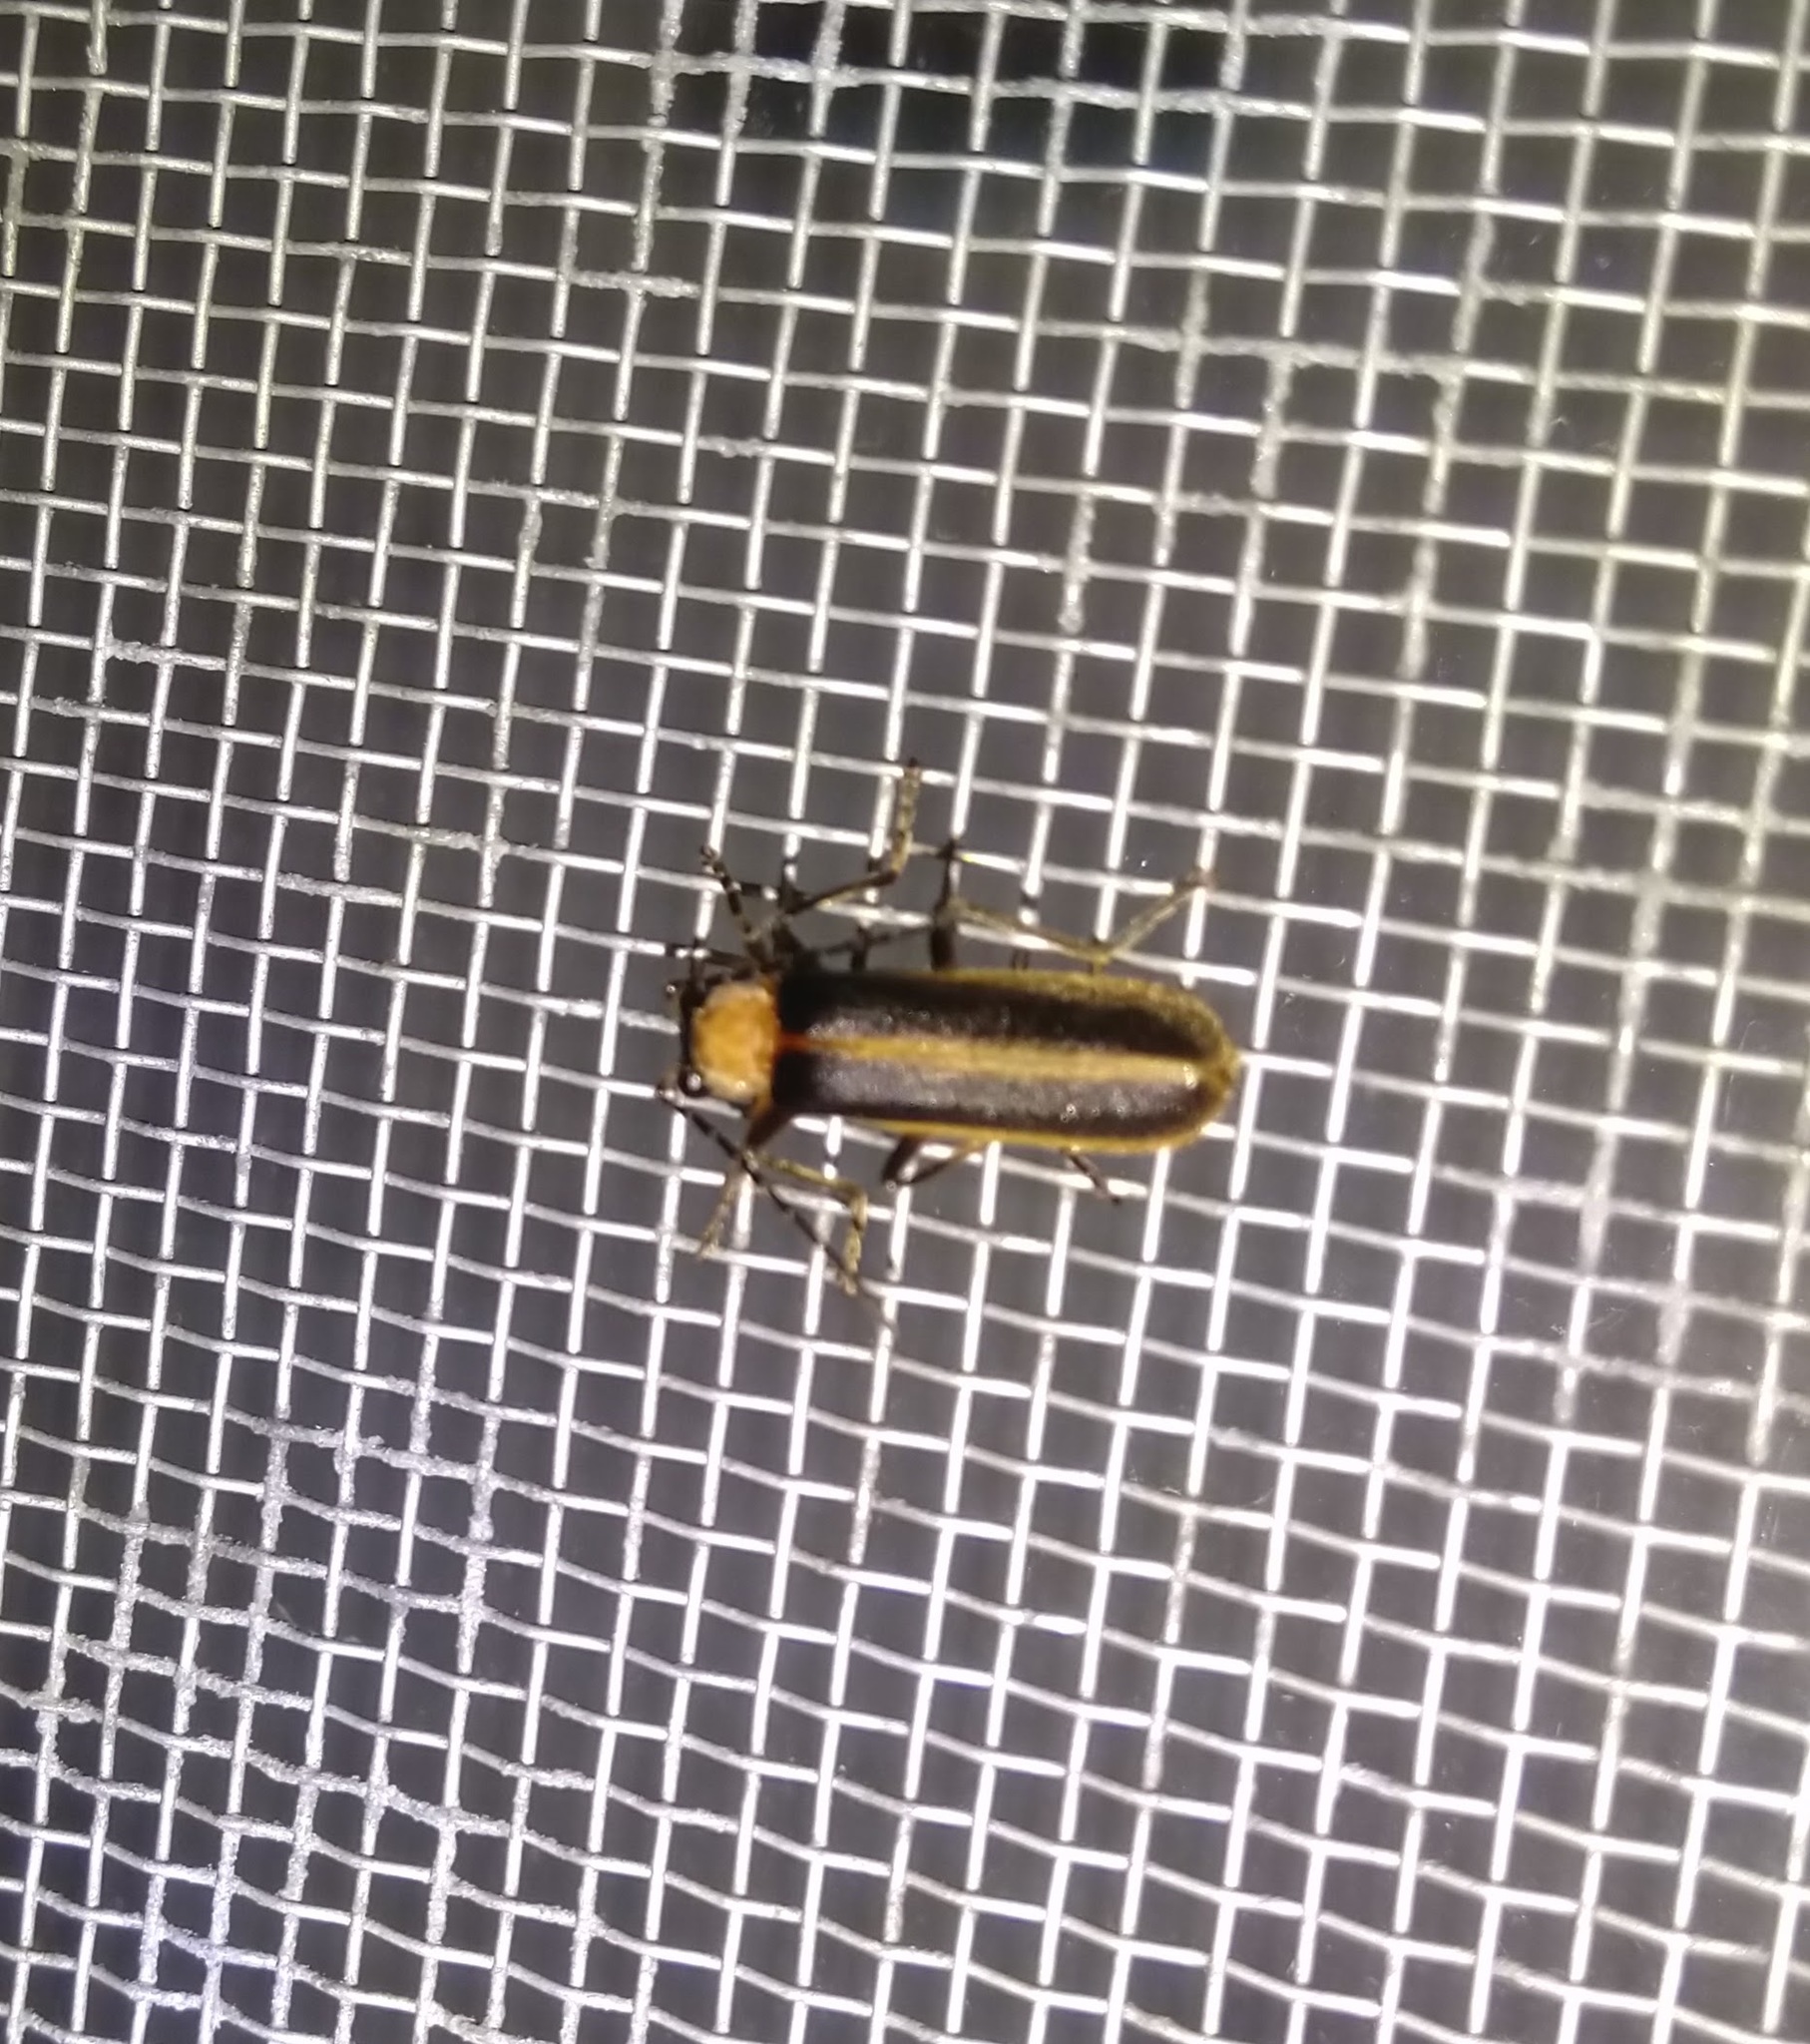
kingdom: Animalia
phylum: Arthropoda
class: Insecta
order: Coleoptera
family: Cantharidae
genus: Podabrus
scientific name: Podabrus flavicollis
